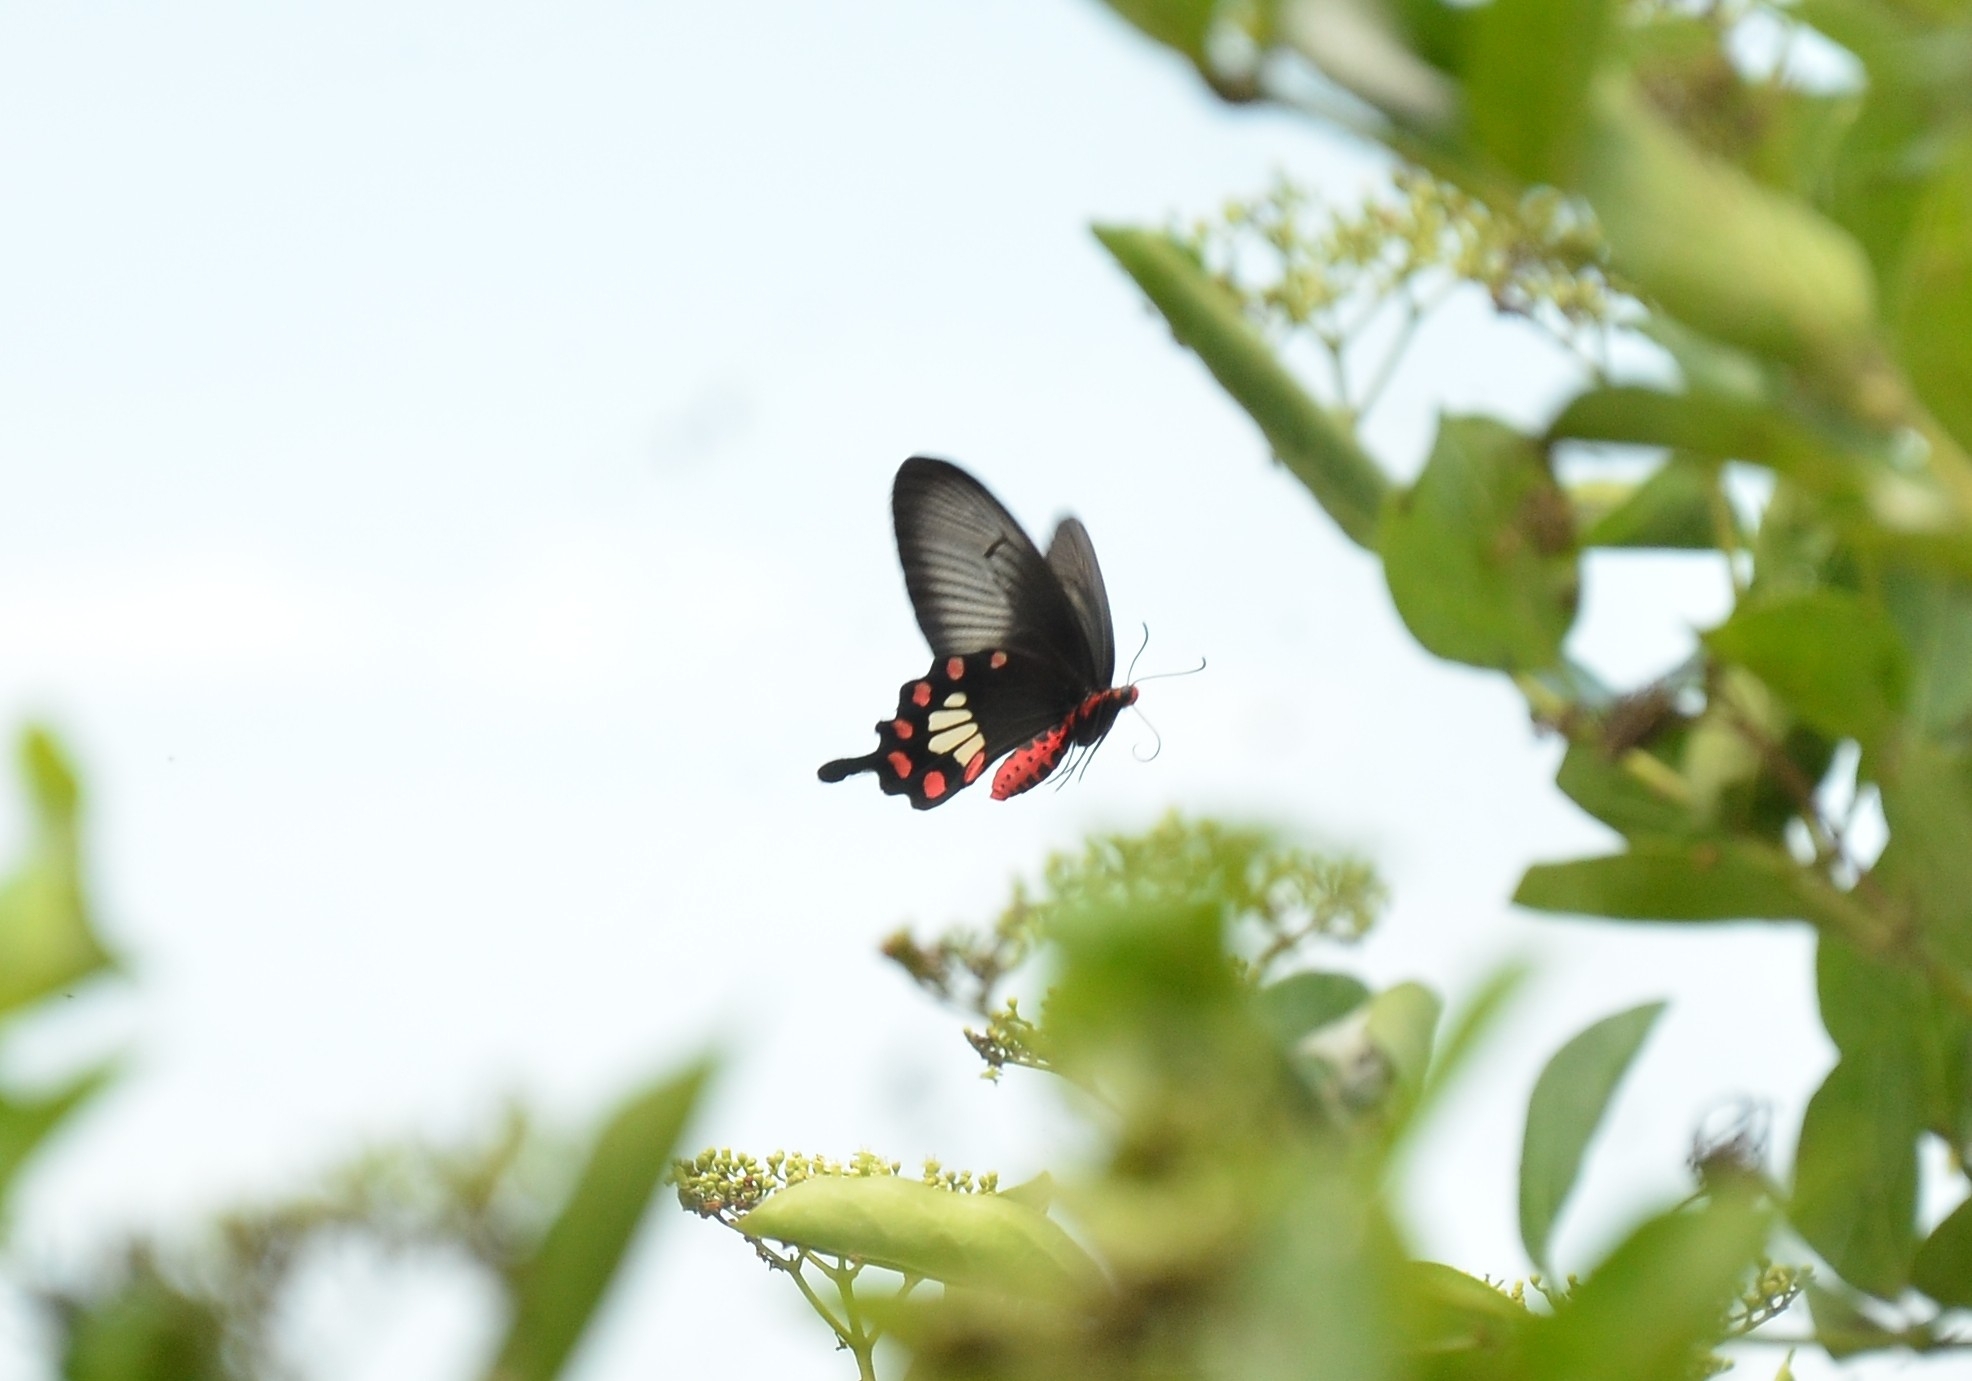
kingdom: Animalia
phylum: Arthropoda
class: Insecta
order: Lepidoptera
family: Papilionidae
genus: Pachliopta
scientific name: Pachliopta aristolochiae
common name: Common rose
